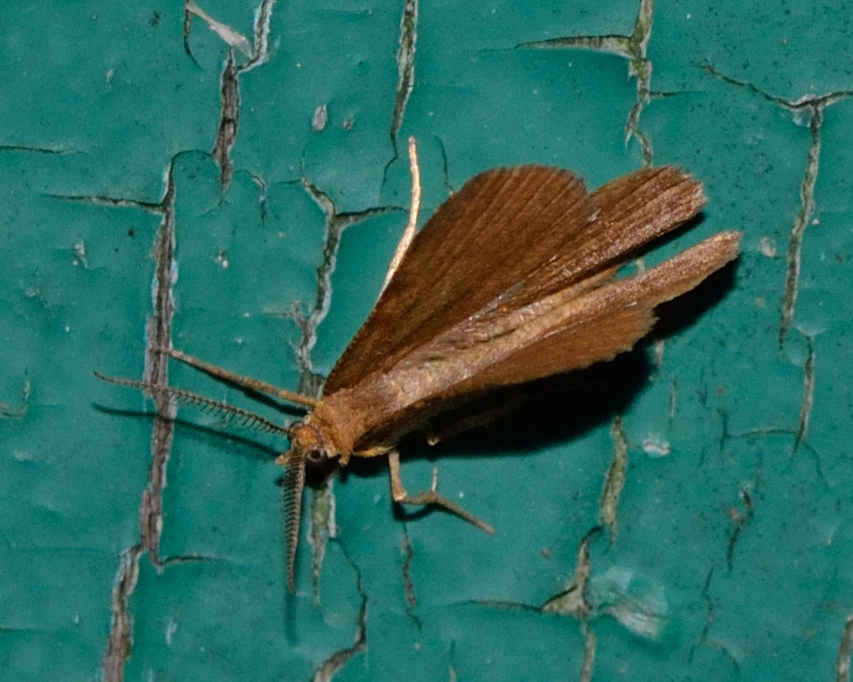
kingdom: Animalia
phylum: Arthropoda
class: Insecta
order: Lepidoptera
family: Geometridae
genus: Macaria
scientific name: Macaria brunneata
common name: Rannoch looper
